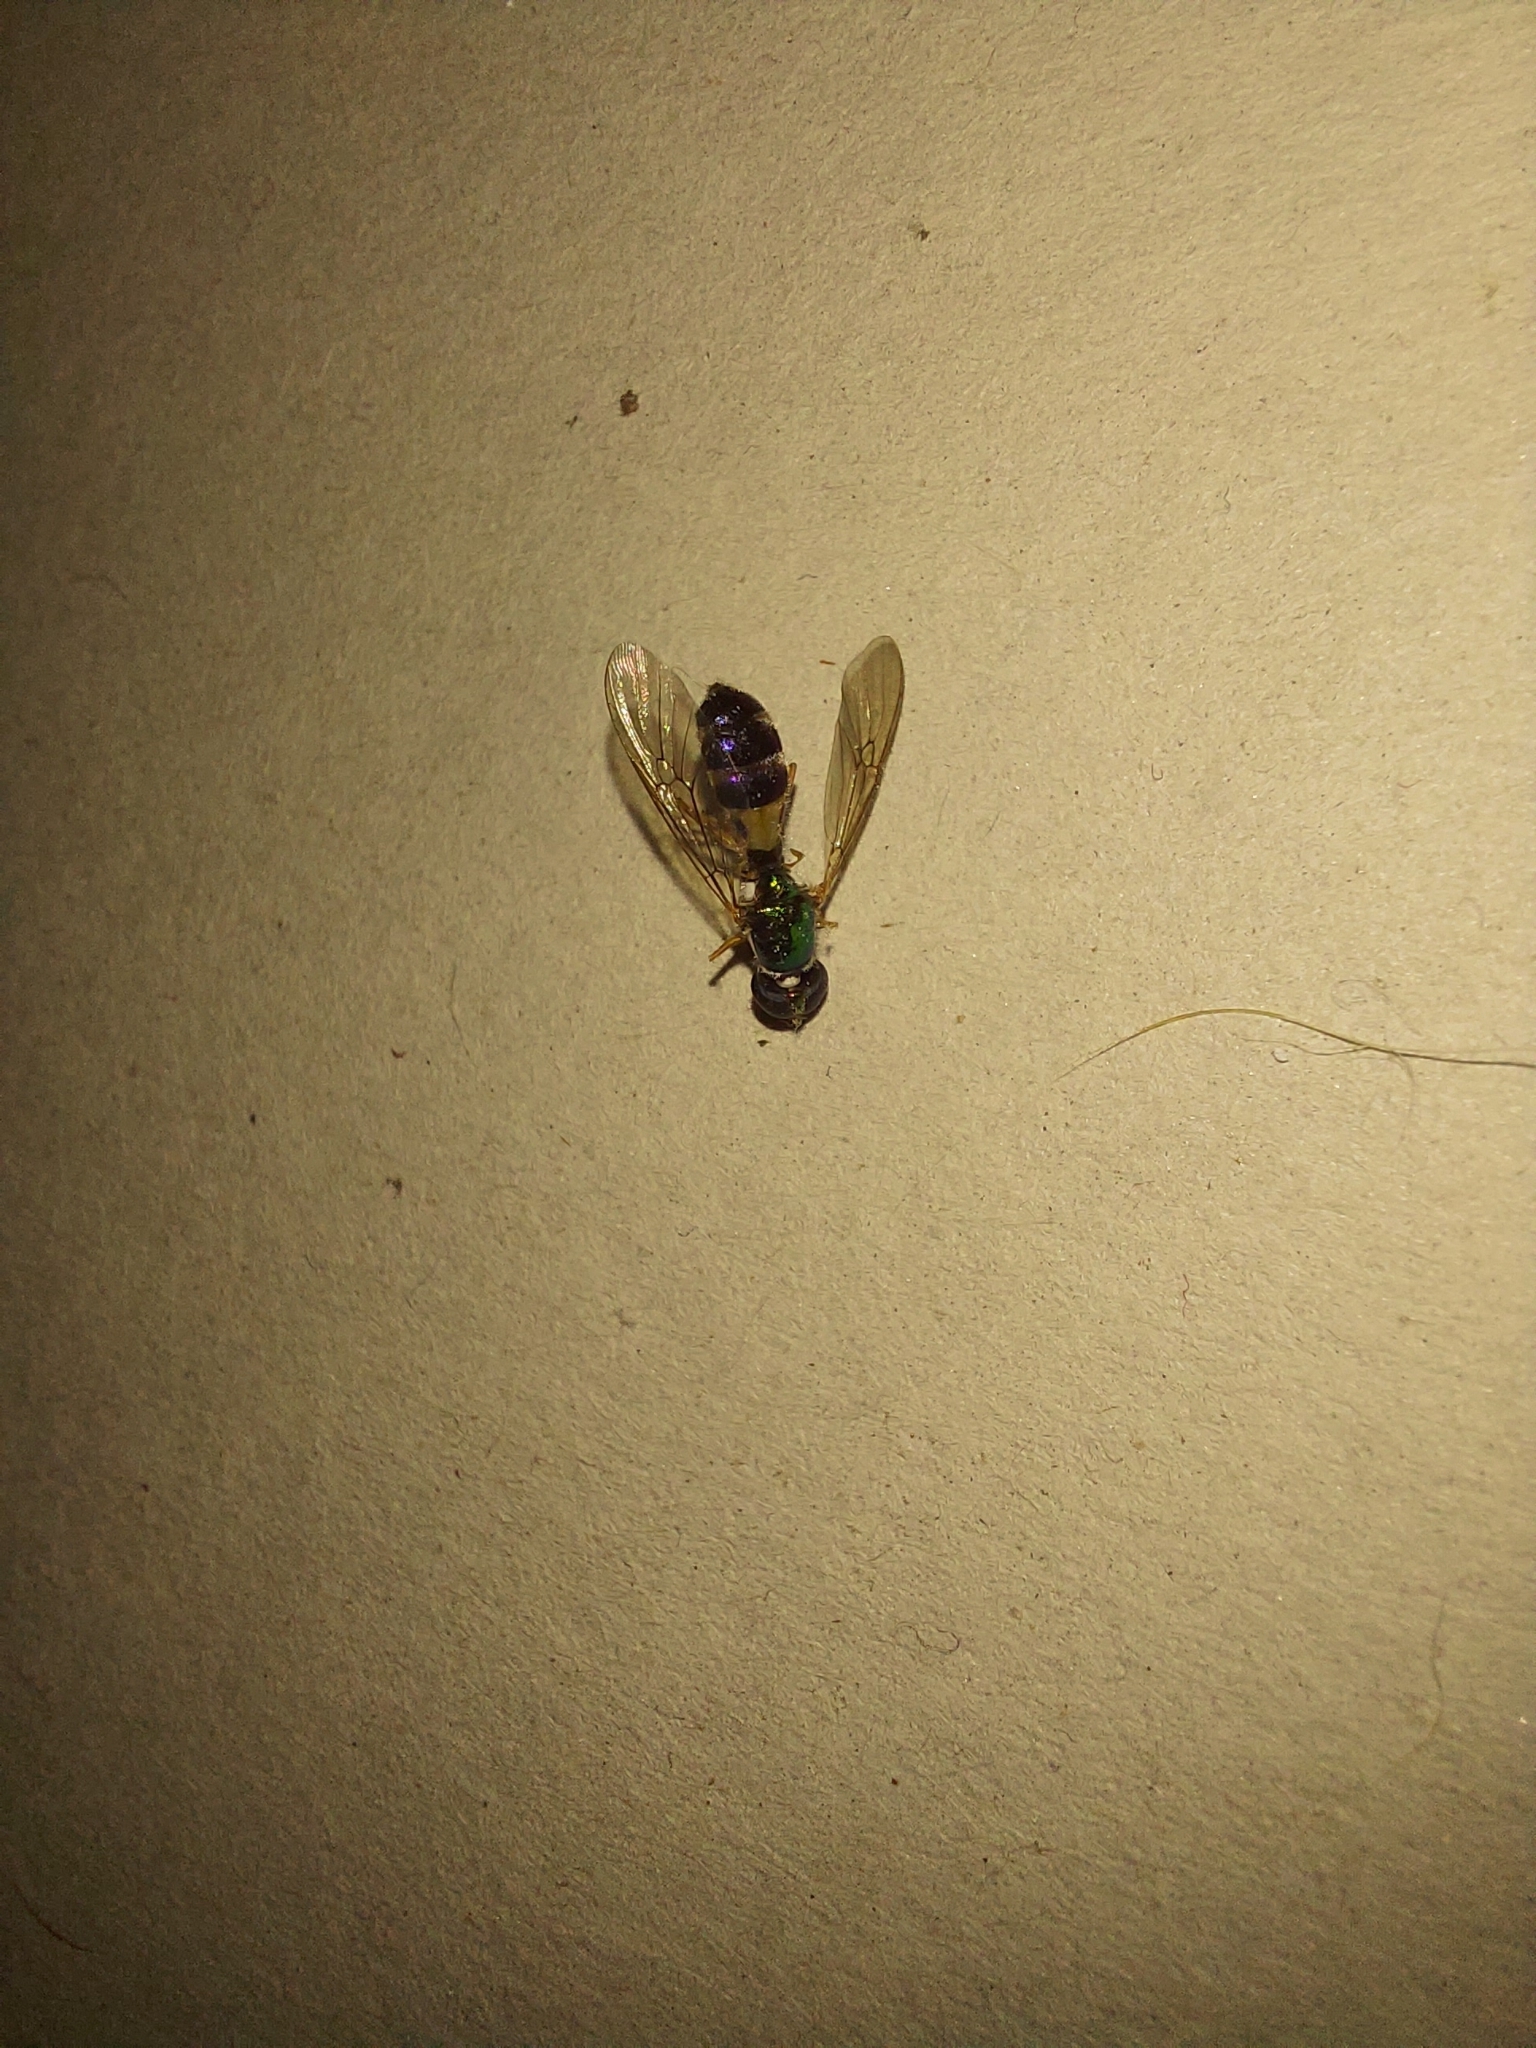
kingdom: Animalia
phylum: Arthropoda
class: Insecta
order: Diptera
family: Stratiomyidae
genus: Sargus
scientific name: Sargus fasciatus
